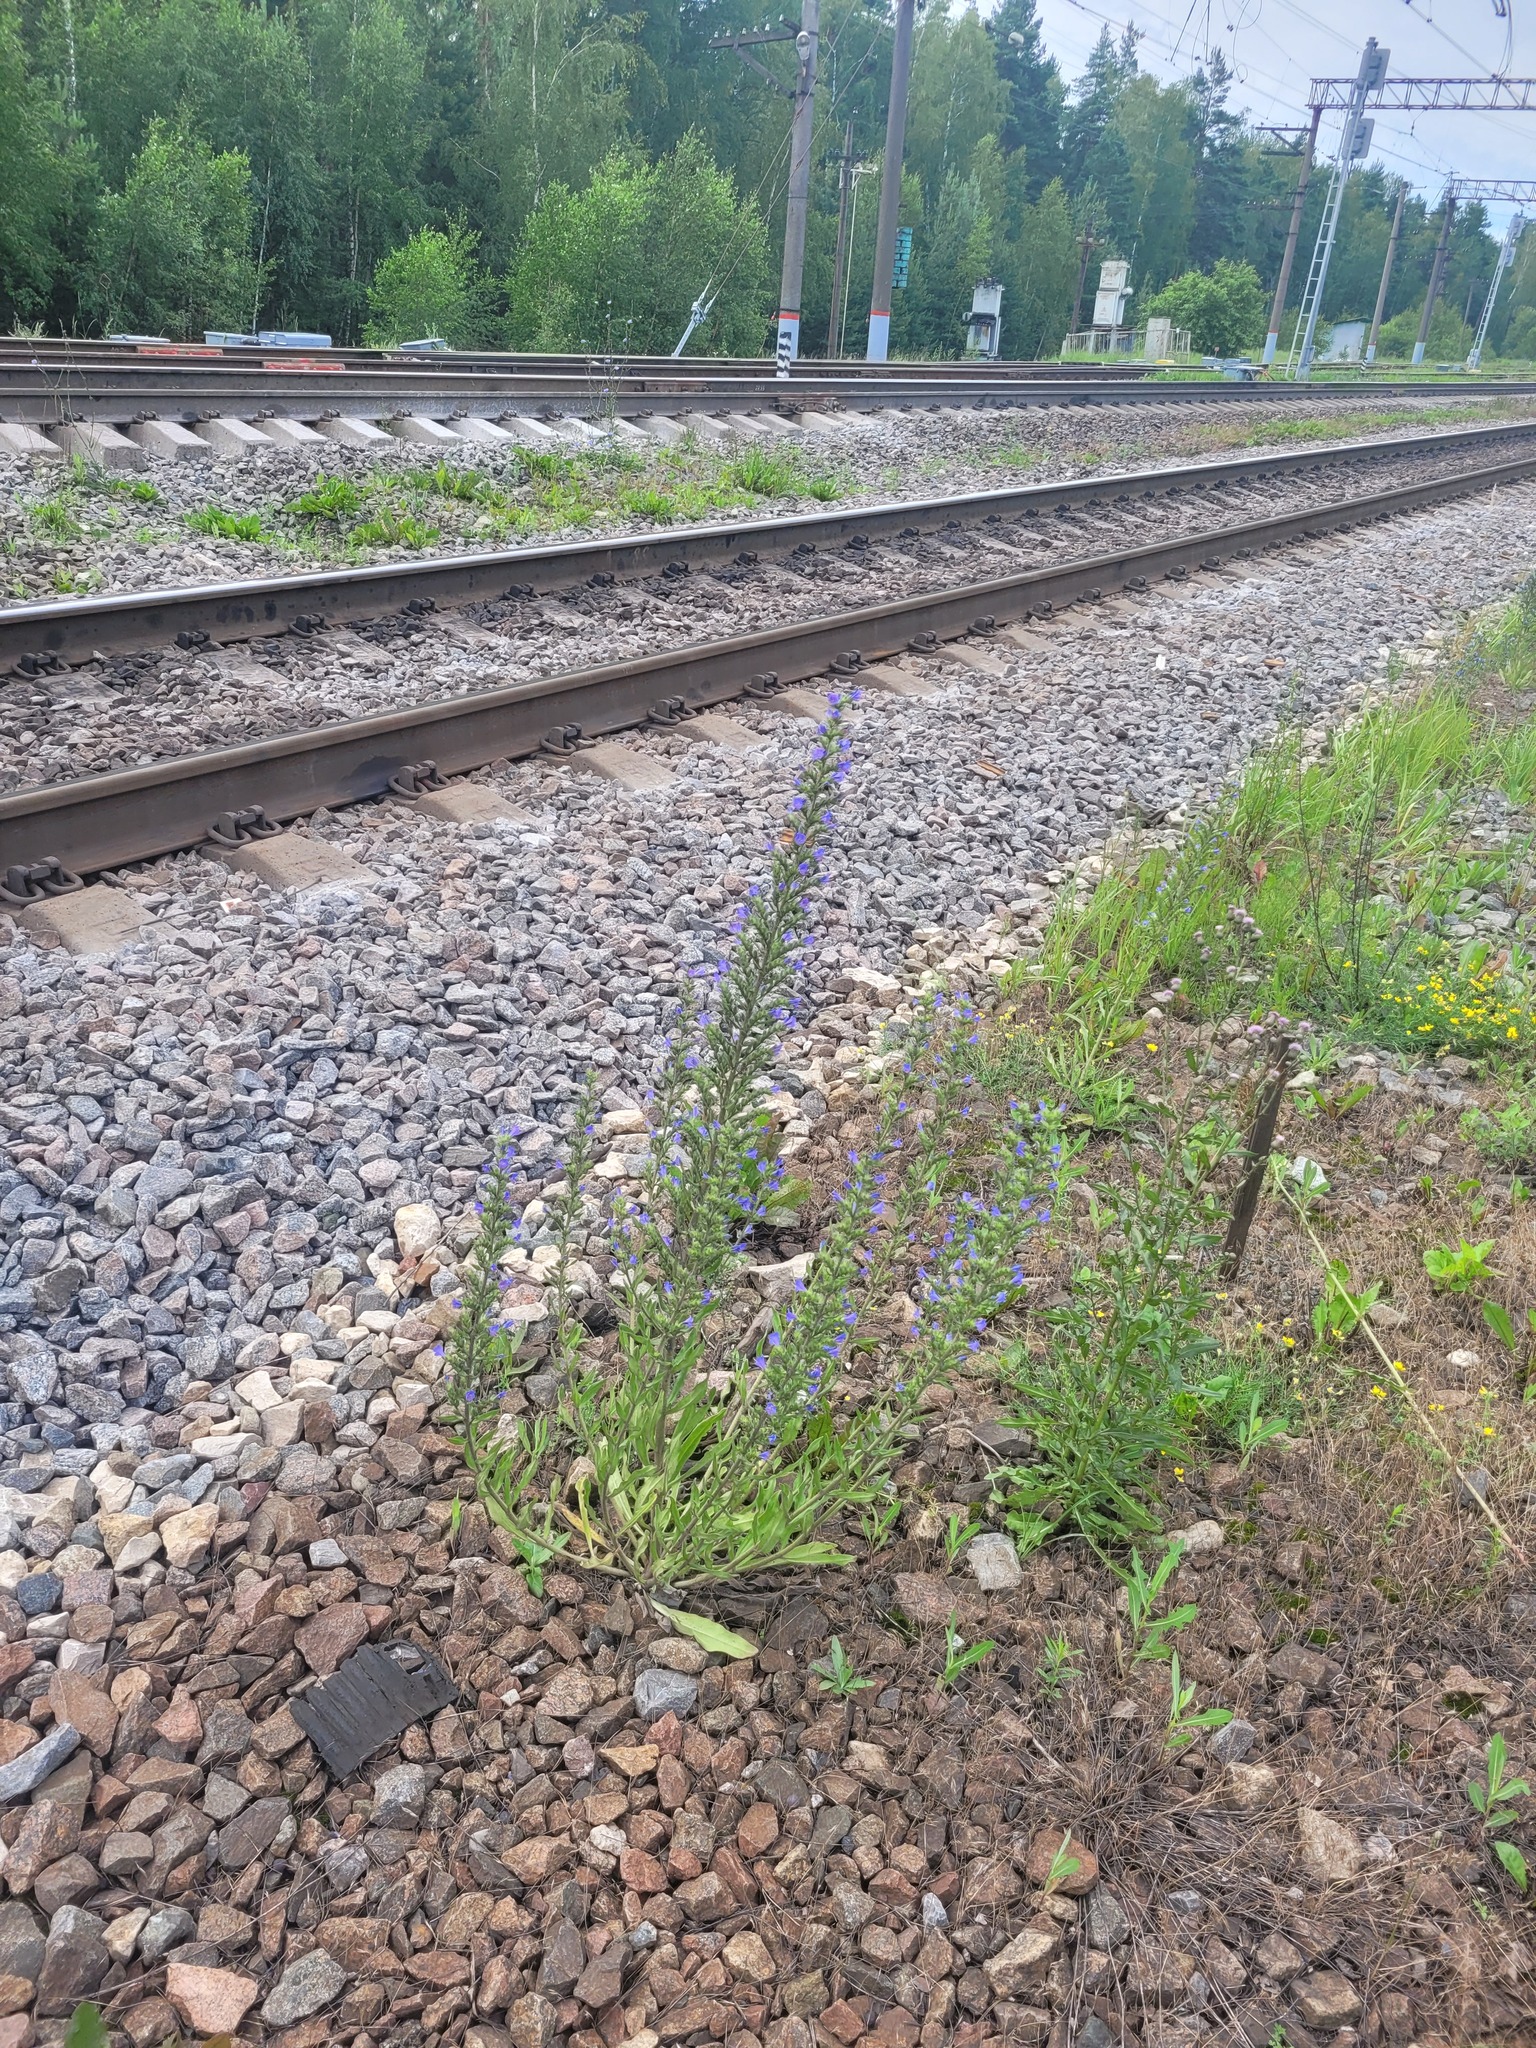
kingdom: Plantae
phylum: Tracheophyta
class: Magnoliopsida
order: Boraginales
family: Boraginaceae
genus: Echium
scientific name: Echium vulgare
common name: Common viper's bugloss
